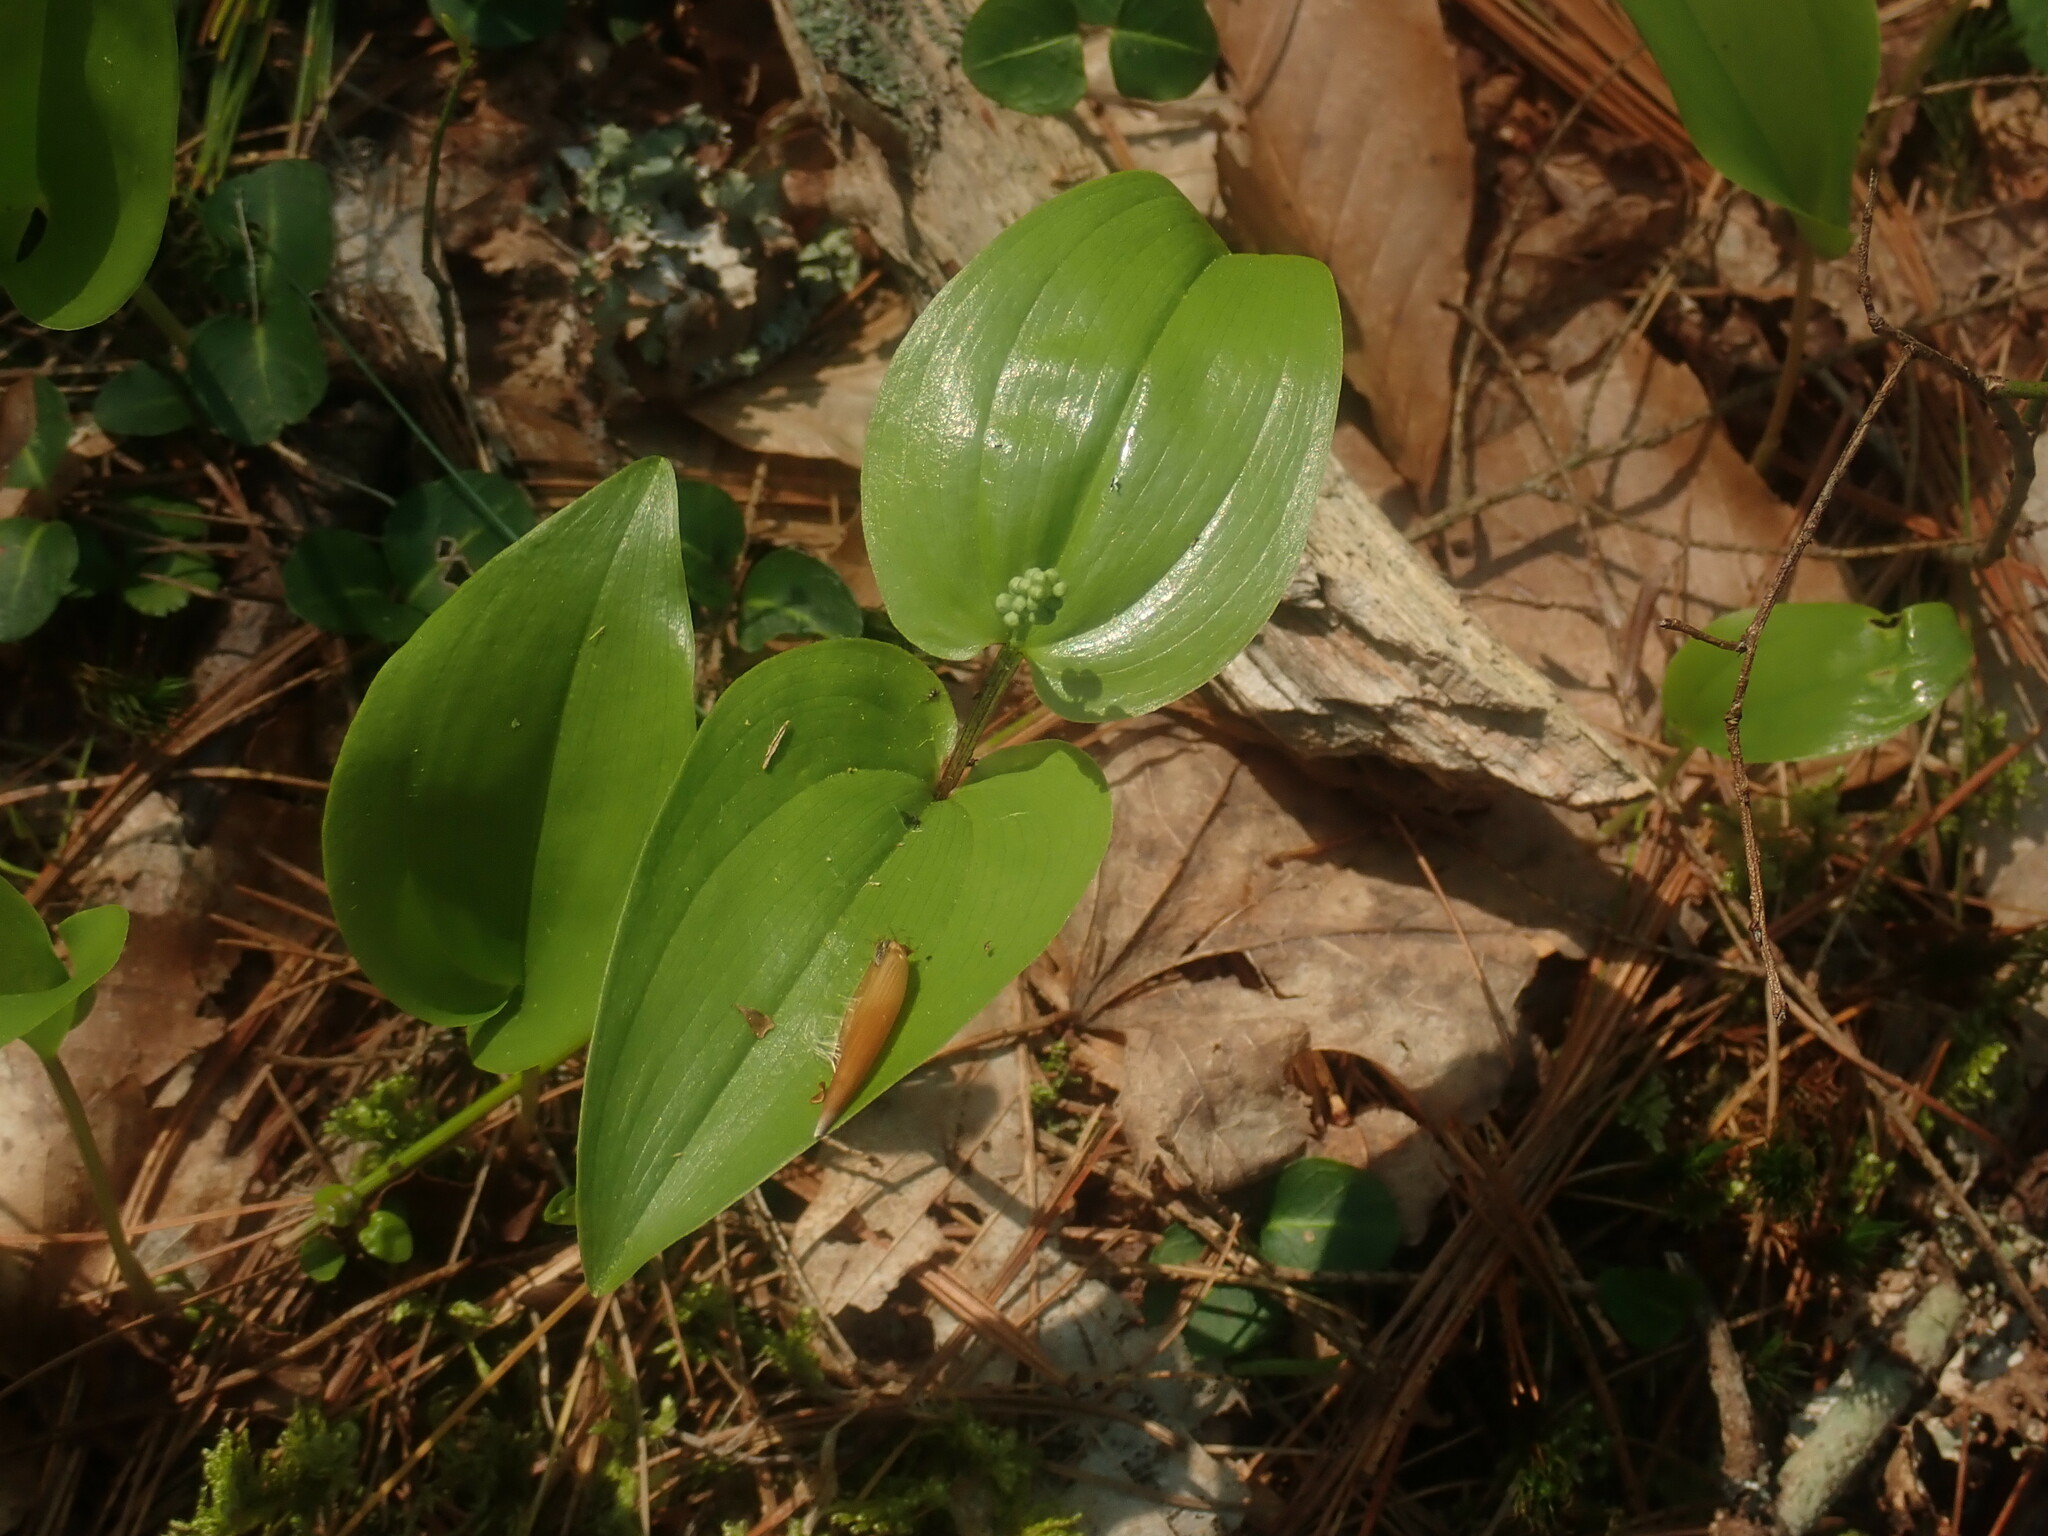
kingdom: Plantae
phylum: Tracheophyta
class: Liliopsida
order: Asparagales
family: Asparagaceae
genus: Maianthemum
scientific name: Maianthemum canadense
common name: False lily-of-the-valley
